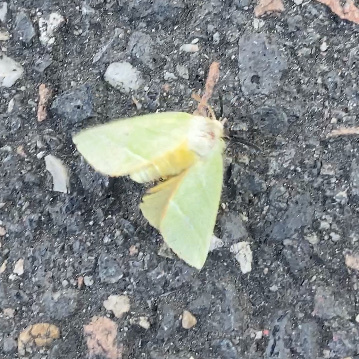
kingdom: Animalia
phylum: Arthropoda
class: Insecta
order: Lepidoptera
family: Nolidae
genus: Pseudoips
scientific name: Pseudoips prasinana
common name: Green silver-lines
